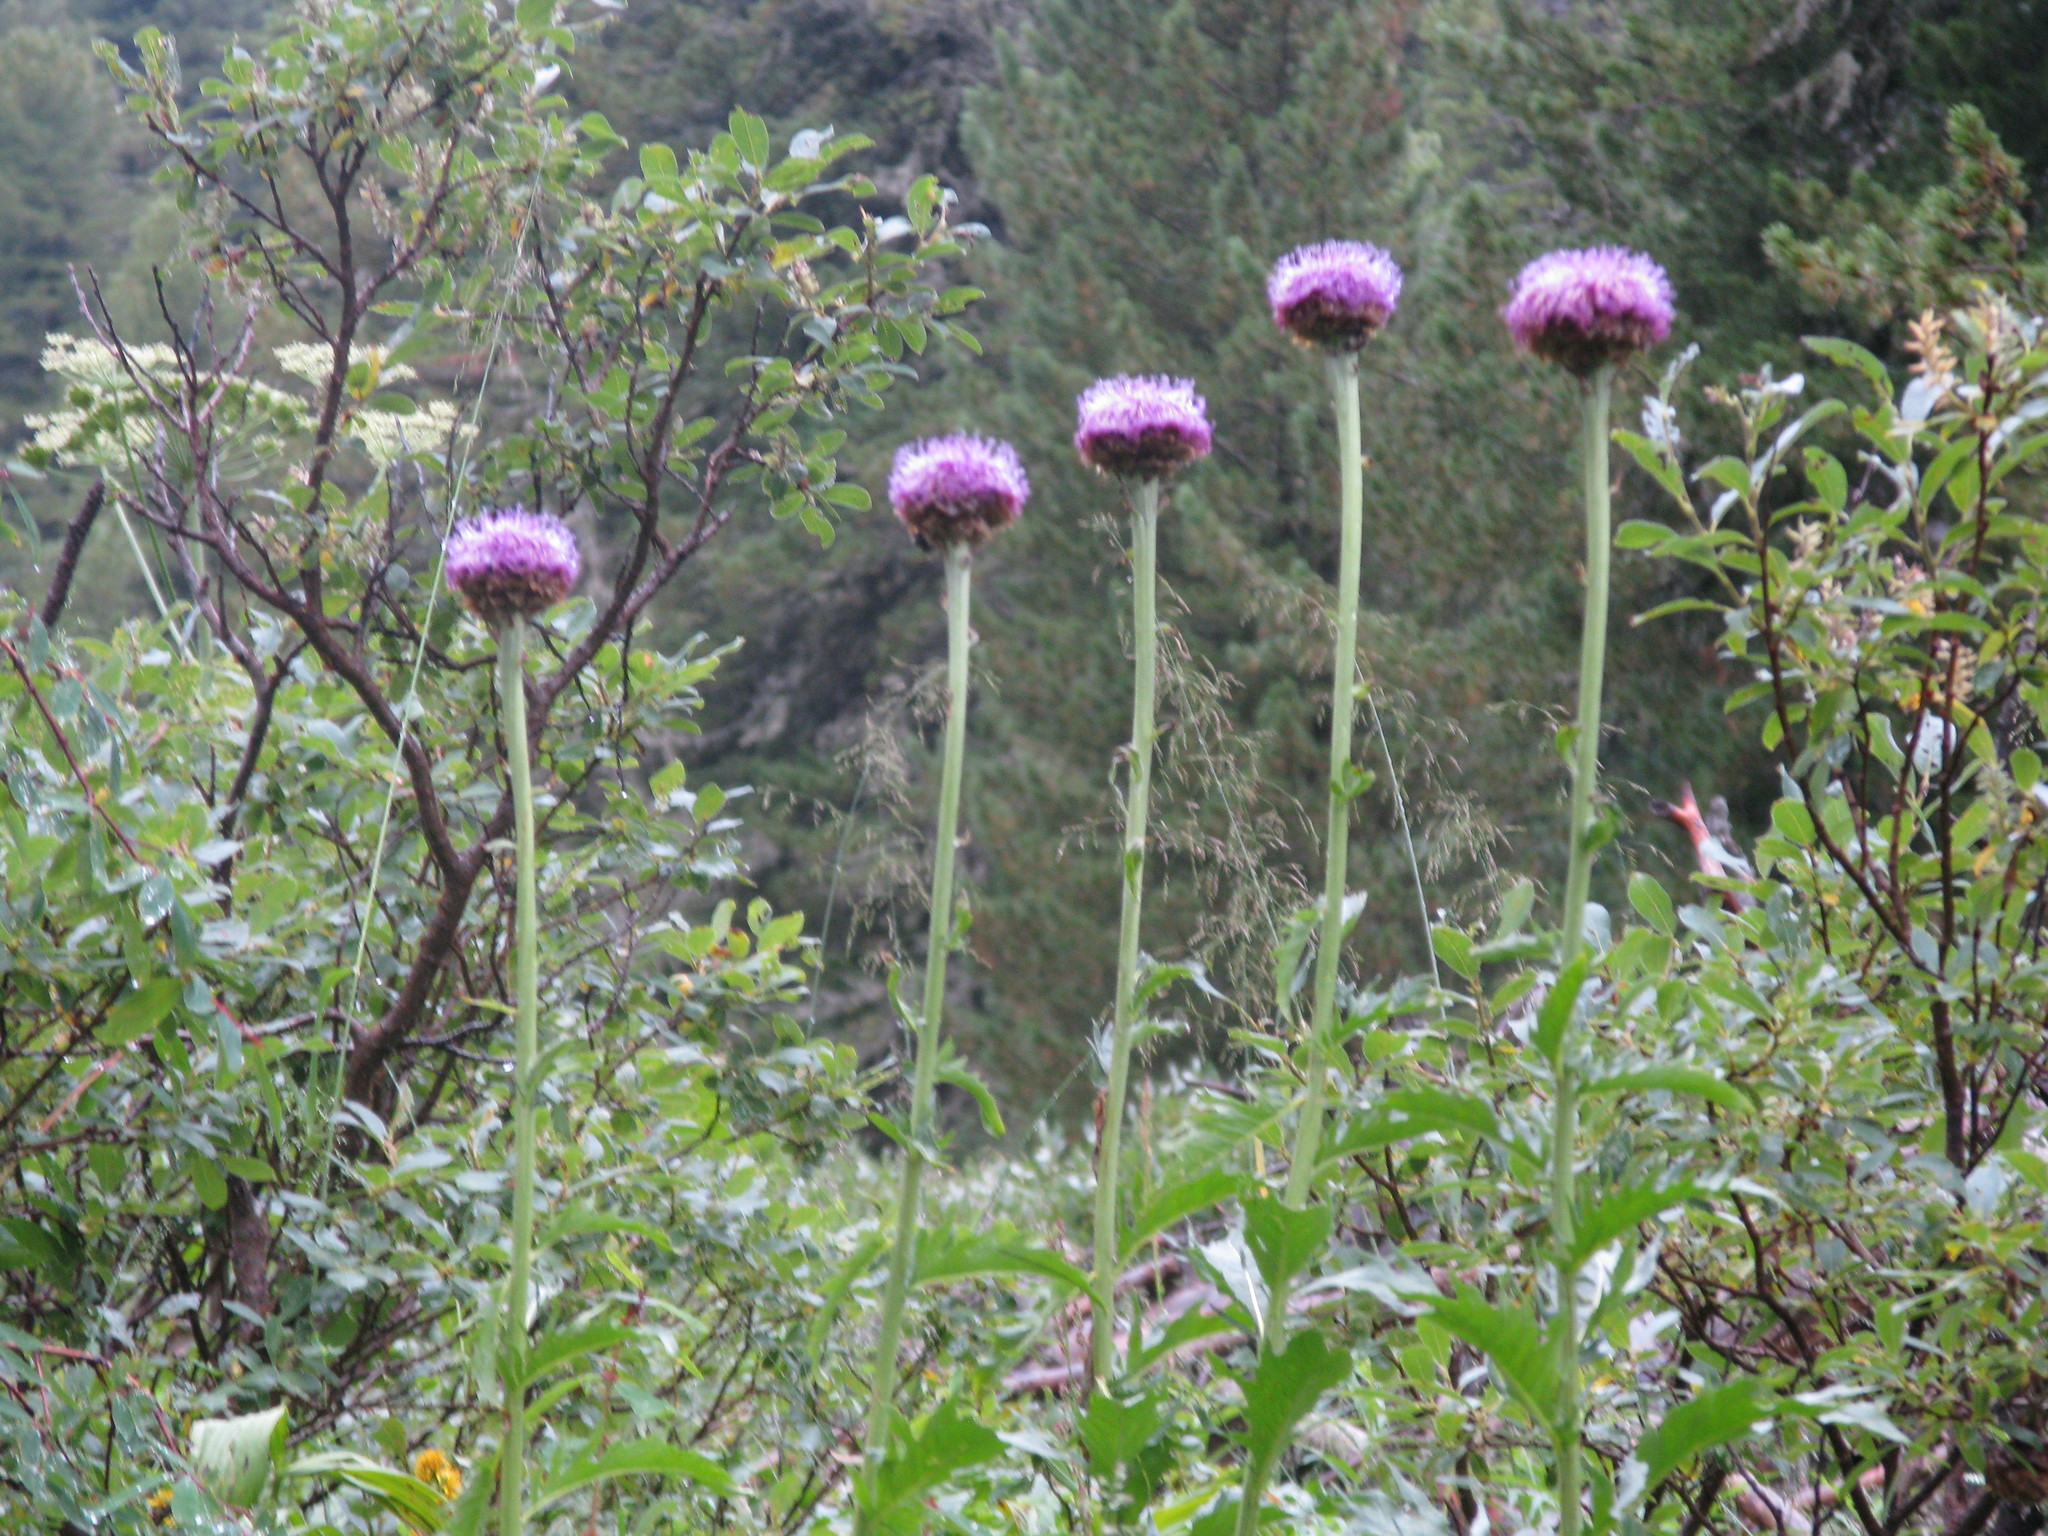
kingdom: Plantae
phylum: Tracheophyta
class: Magnoliopsida
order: Asterales
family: Asteraceae
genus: Leuzea
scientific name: Leuzea carthamoides
